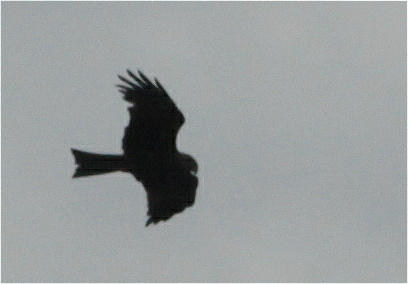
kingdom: Animalia
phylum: Chordata
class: Aves
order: Accipitriformes
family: Accipitridae
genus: Milvus
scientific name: Milvus migrans
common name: Black kite
